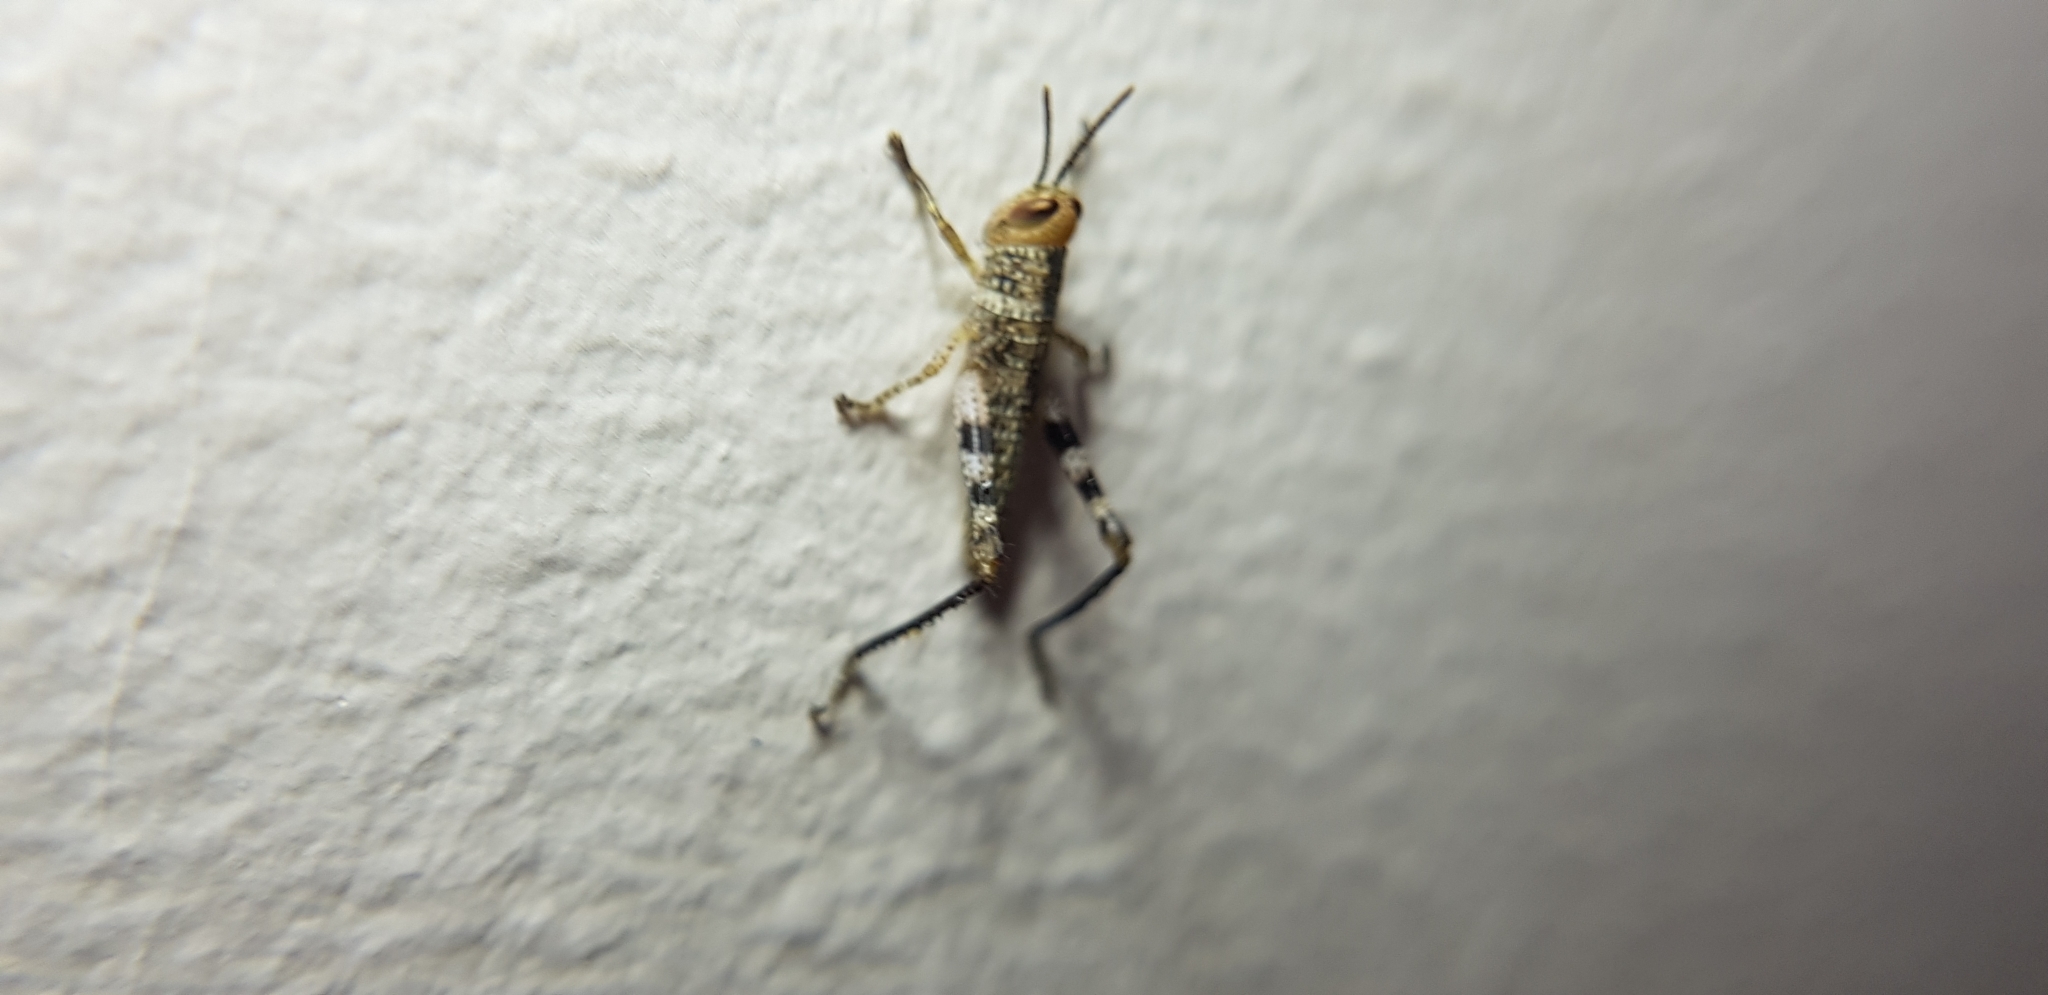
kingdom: Animalia
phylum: Arthropoda
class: Insecta
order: Orthoptera
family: Acrididae
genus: Valanga
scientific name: Valanga irregularis
